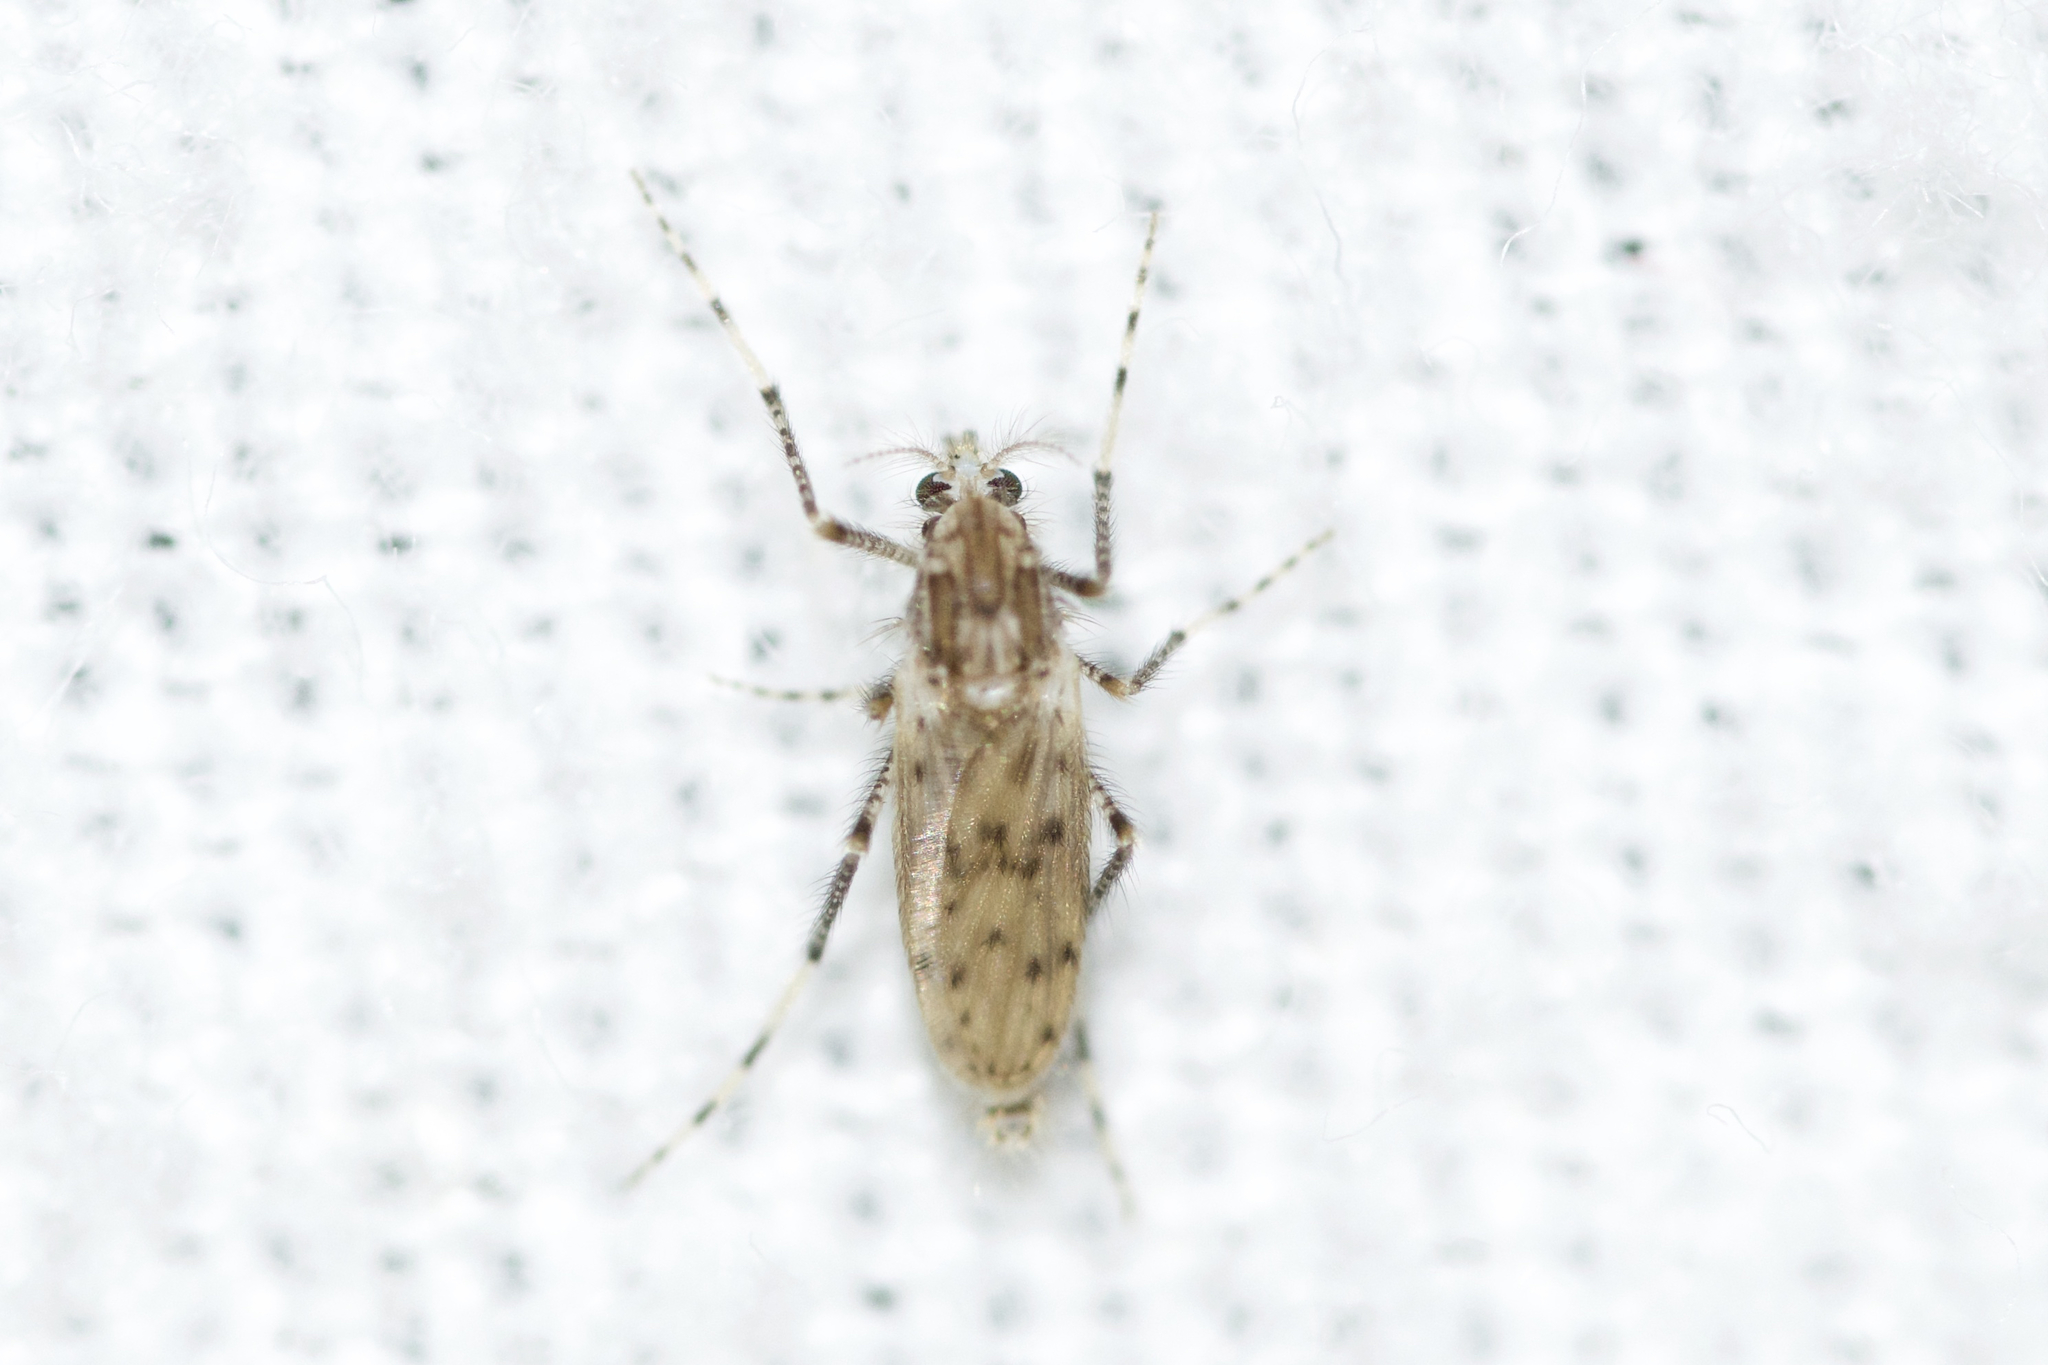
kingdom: Animalia
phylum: Arthropoda
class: Insecta
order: Diptera
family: Chaoboridae
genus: Chaoborus
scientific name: Chaoborus punctipennis
